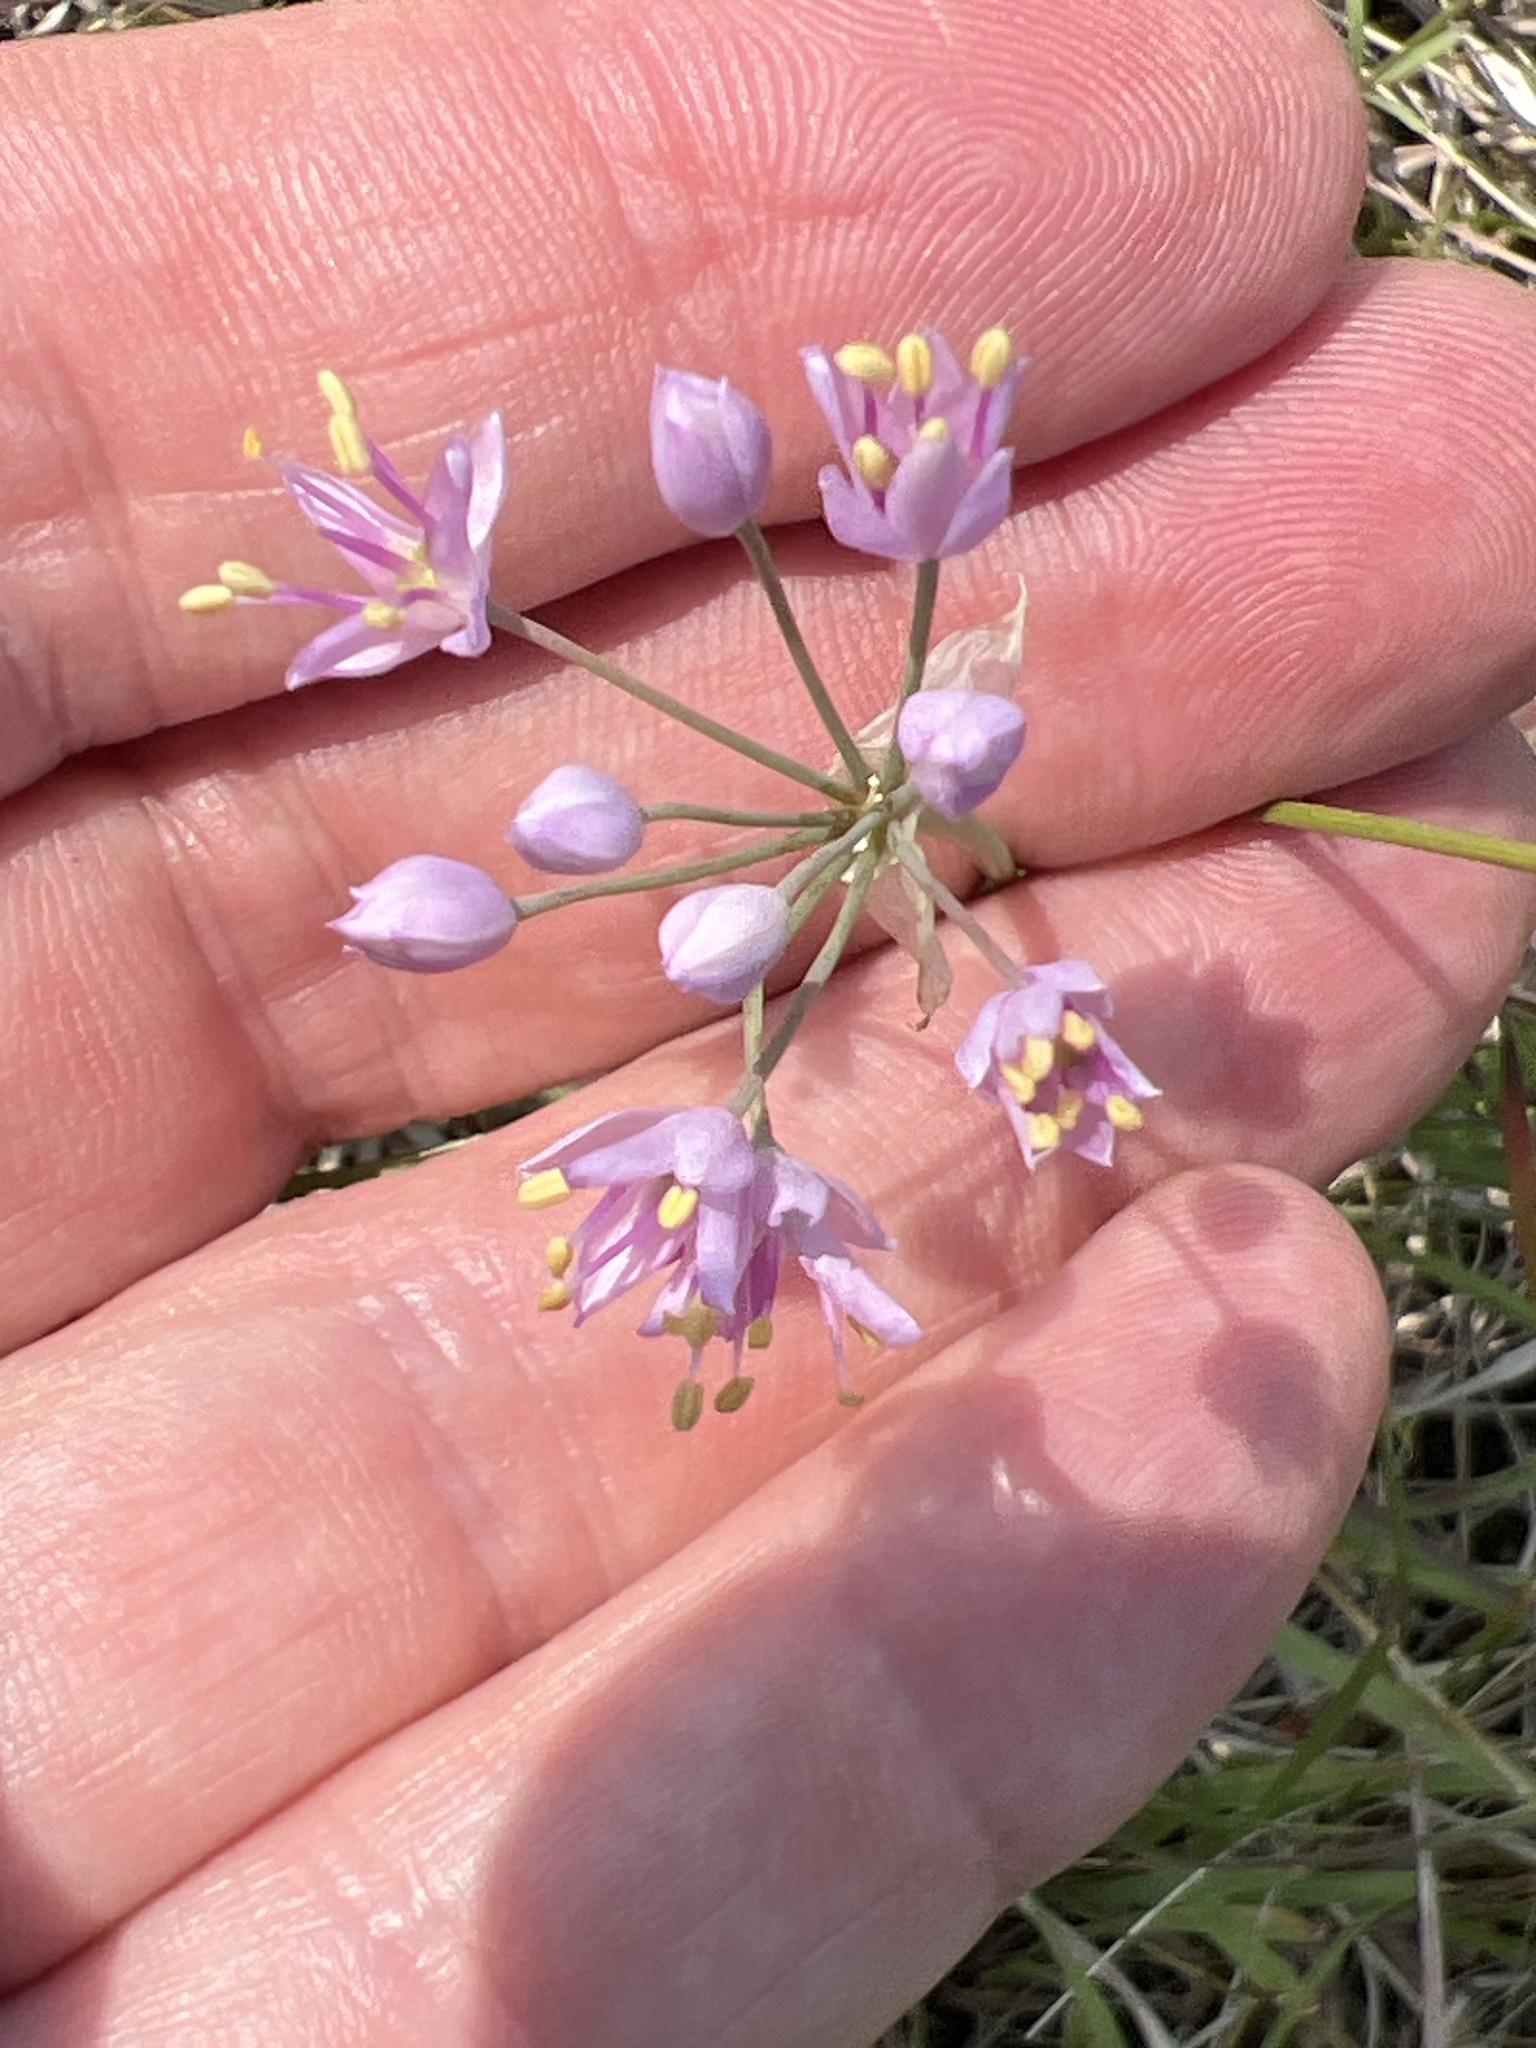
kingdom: Plantae
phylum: Tracheophyta
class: Liliopsida
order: Asparagales
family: Amaryllidaceae
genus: Allium
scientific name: Allium stellatum
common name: Autumn onion
